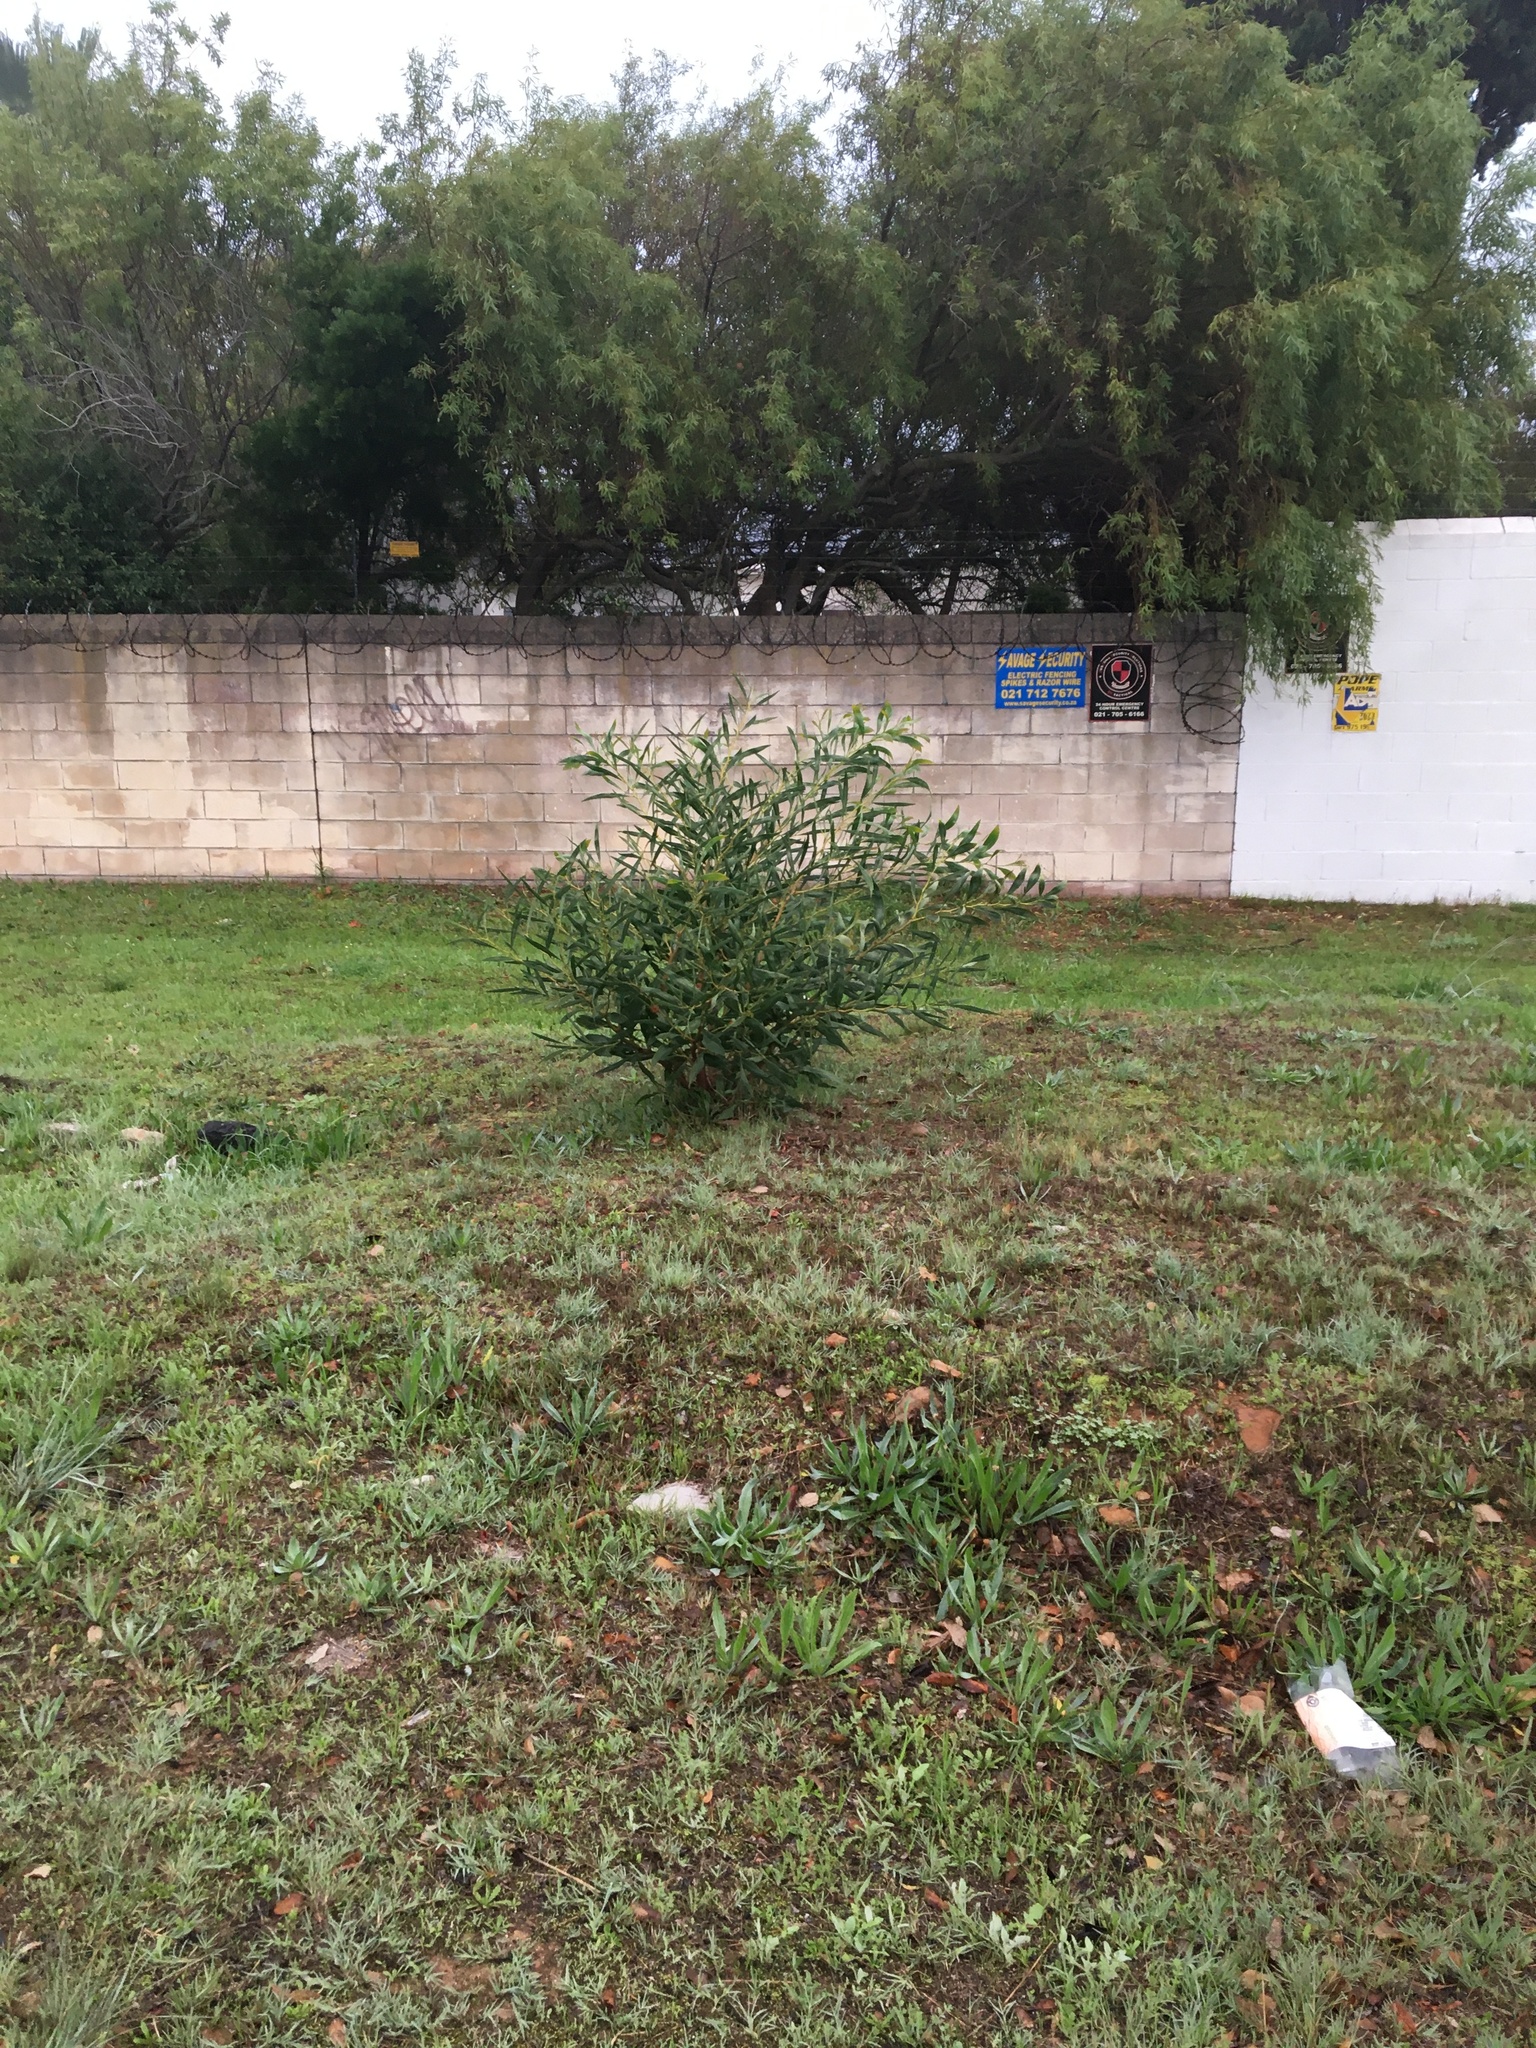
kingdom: Plantae
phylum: Tracheophyta
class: Magnoliopsida
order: Fabales
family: Fabaceae
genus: Acacia
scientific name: Acacia saligna
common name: Orange wattle
